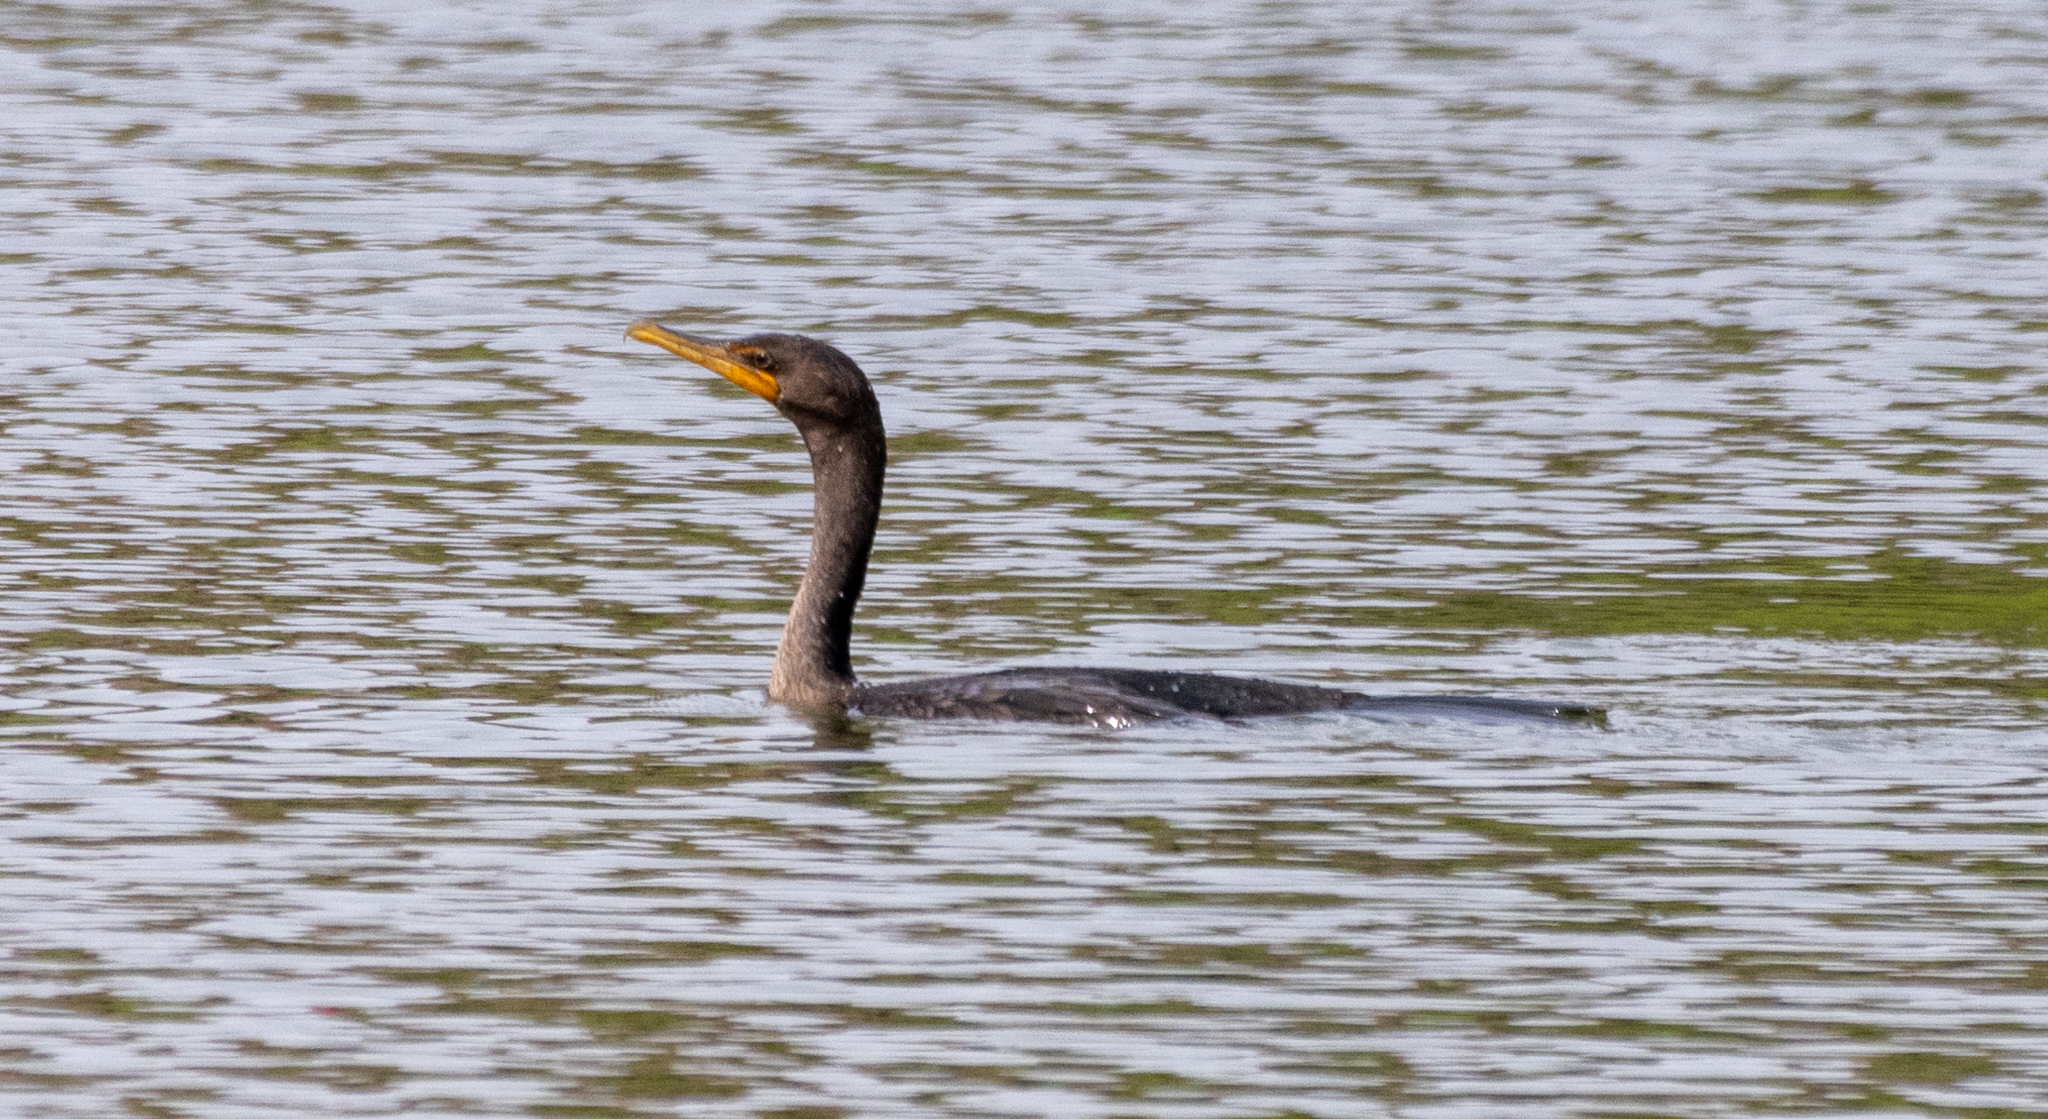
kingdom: Animalia
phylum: Chordata
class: Aves
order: Suliformes
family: Phalacrocoracidae
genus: Phalacrocorax
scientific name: Phalacrocorax auritus
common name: Double-crested cormorant
